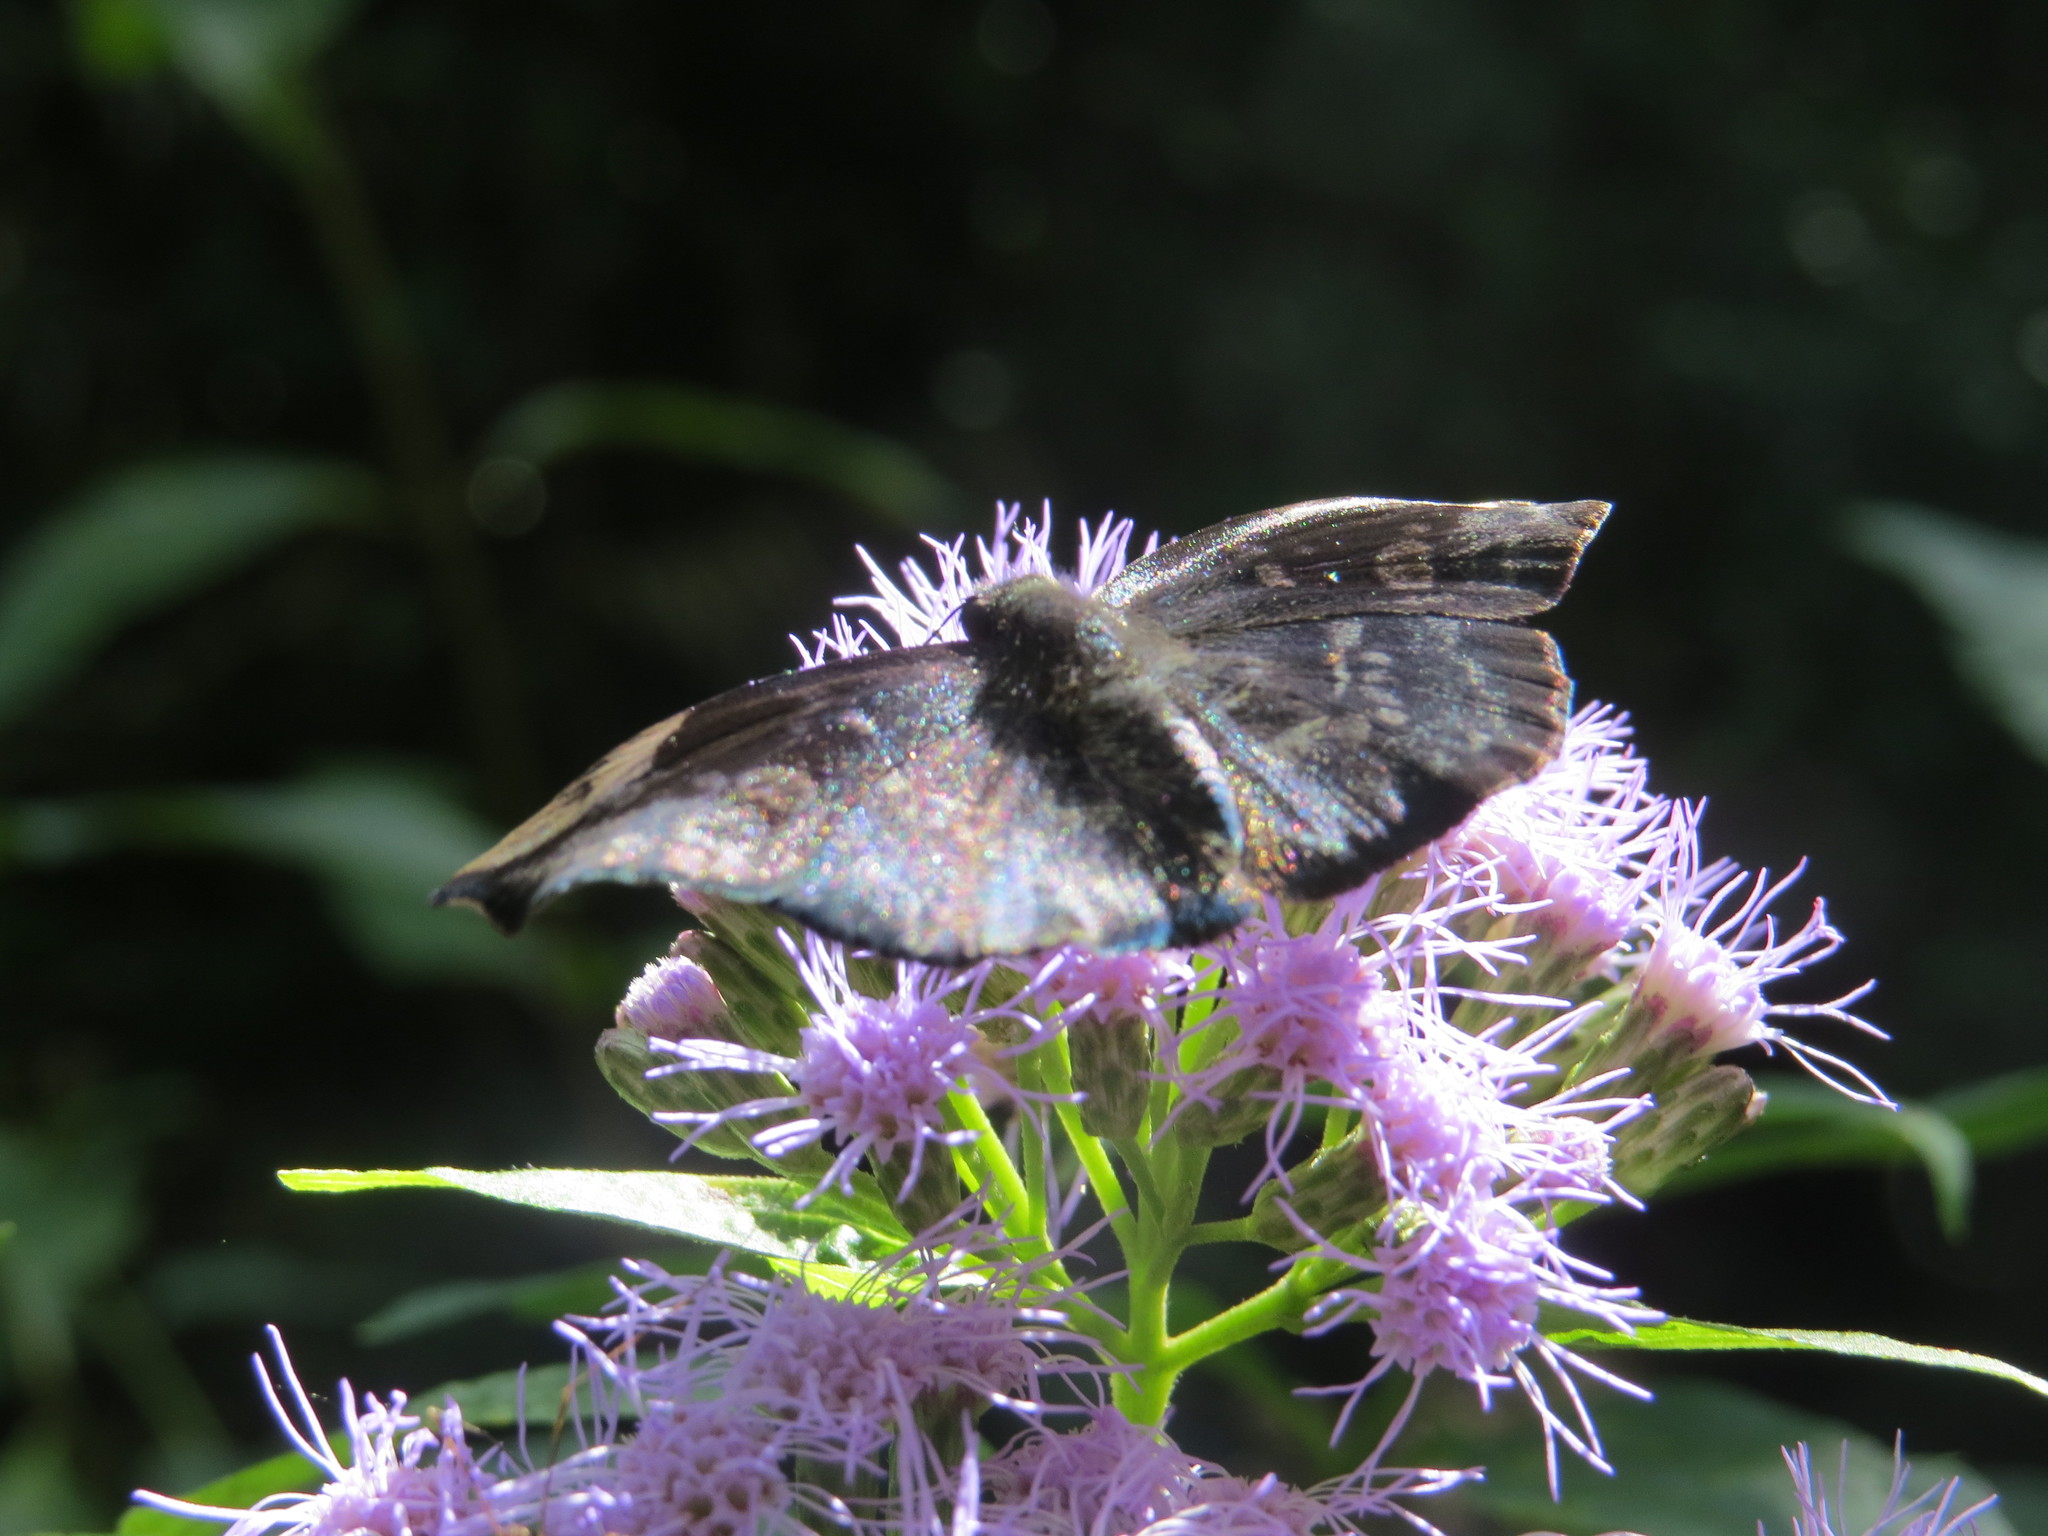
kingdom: Animalia
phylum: Arthropoda
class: Insecta
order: Lepidoptera
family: Hesperiidae
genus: Achlyodes
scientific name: Achlyodes thraso
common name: Sickle-winged skipper
